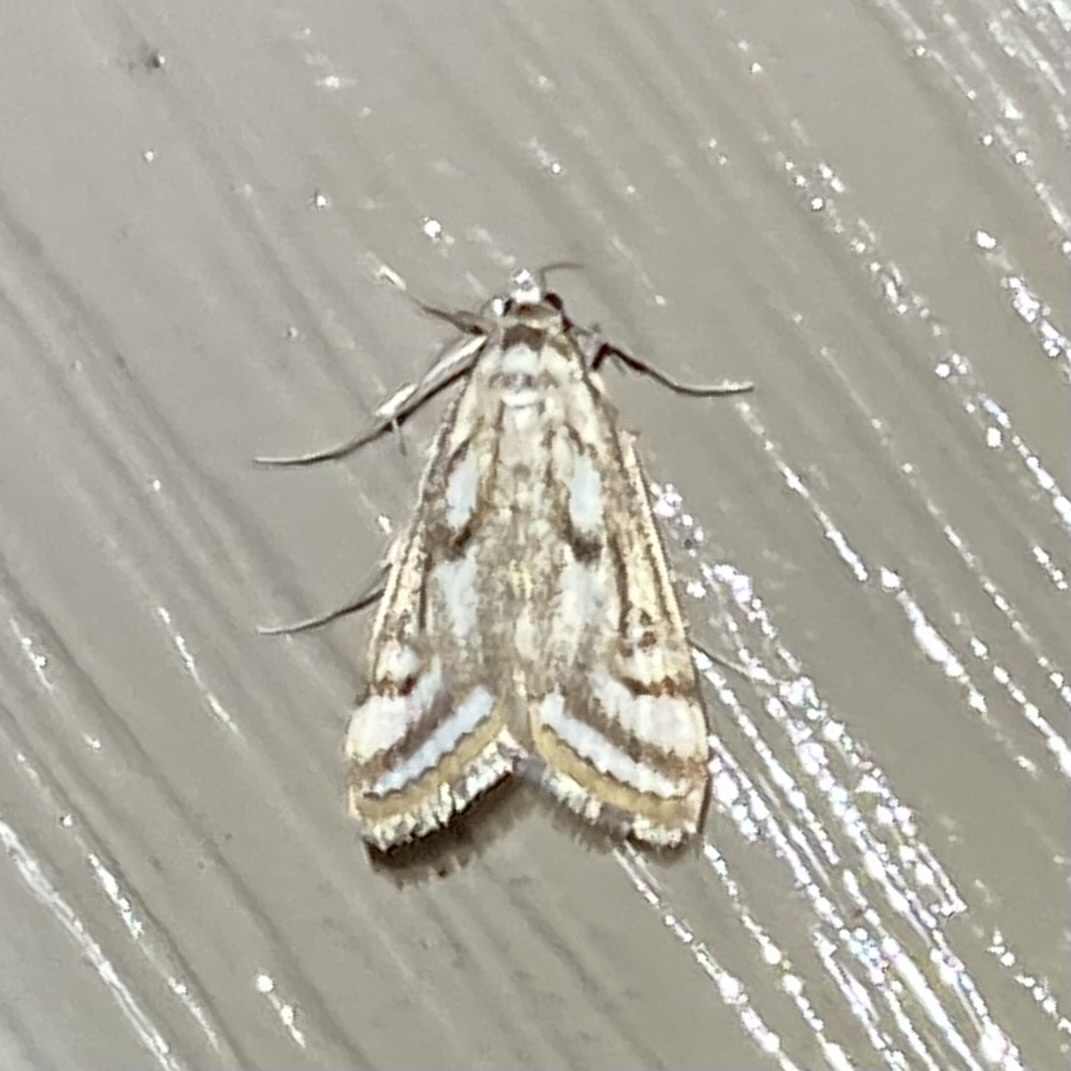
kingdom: Animalia
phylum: Arthropoda
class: Insecta
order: Lepidoptera
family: Crambidae
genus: Parapoynx
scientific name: Parapoynx badiusalis
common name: Chestnut-marked pondweed moth
